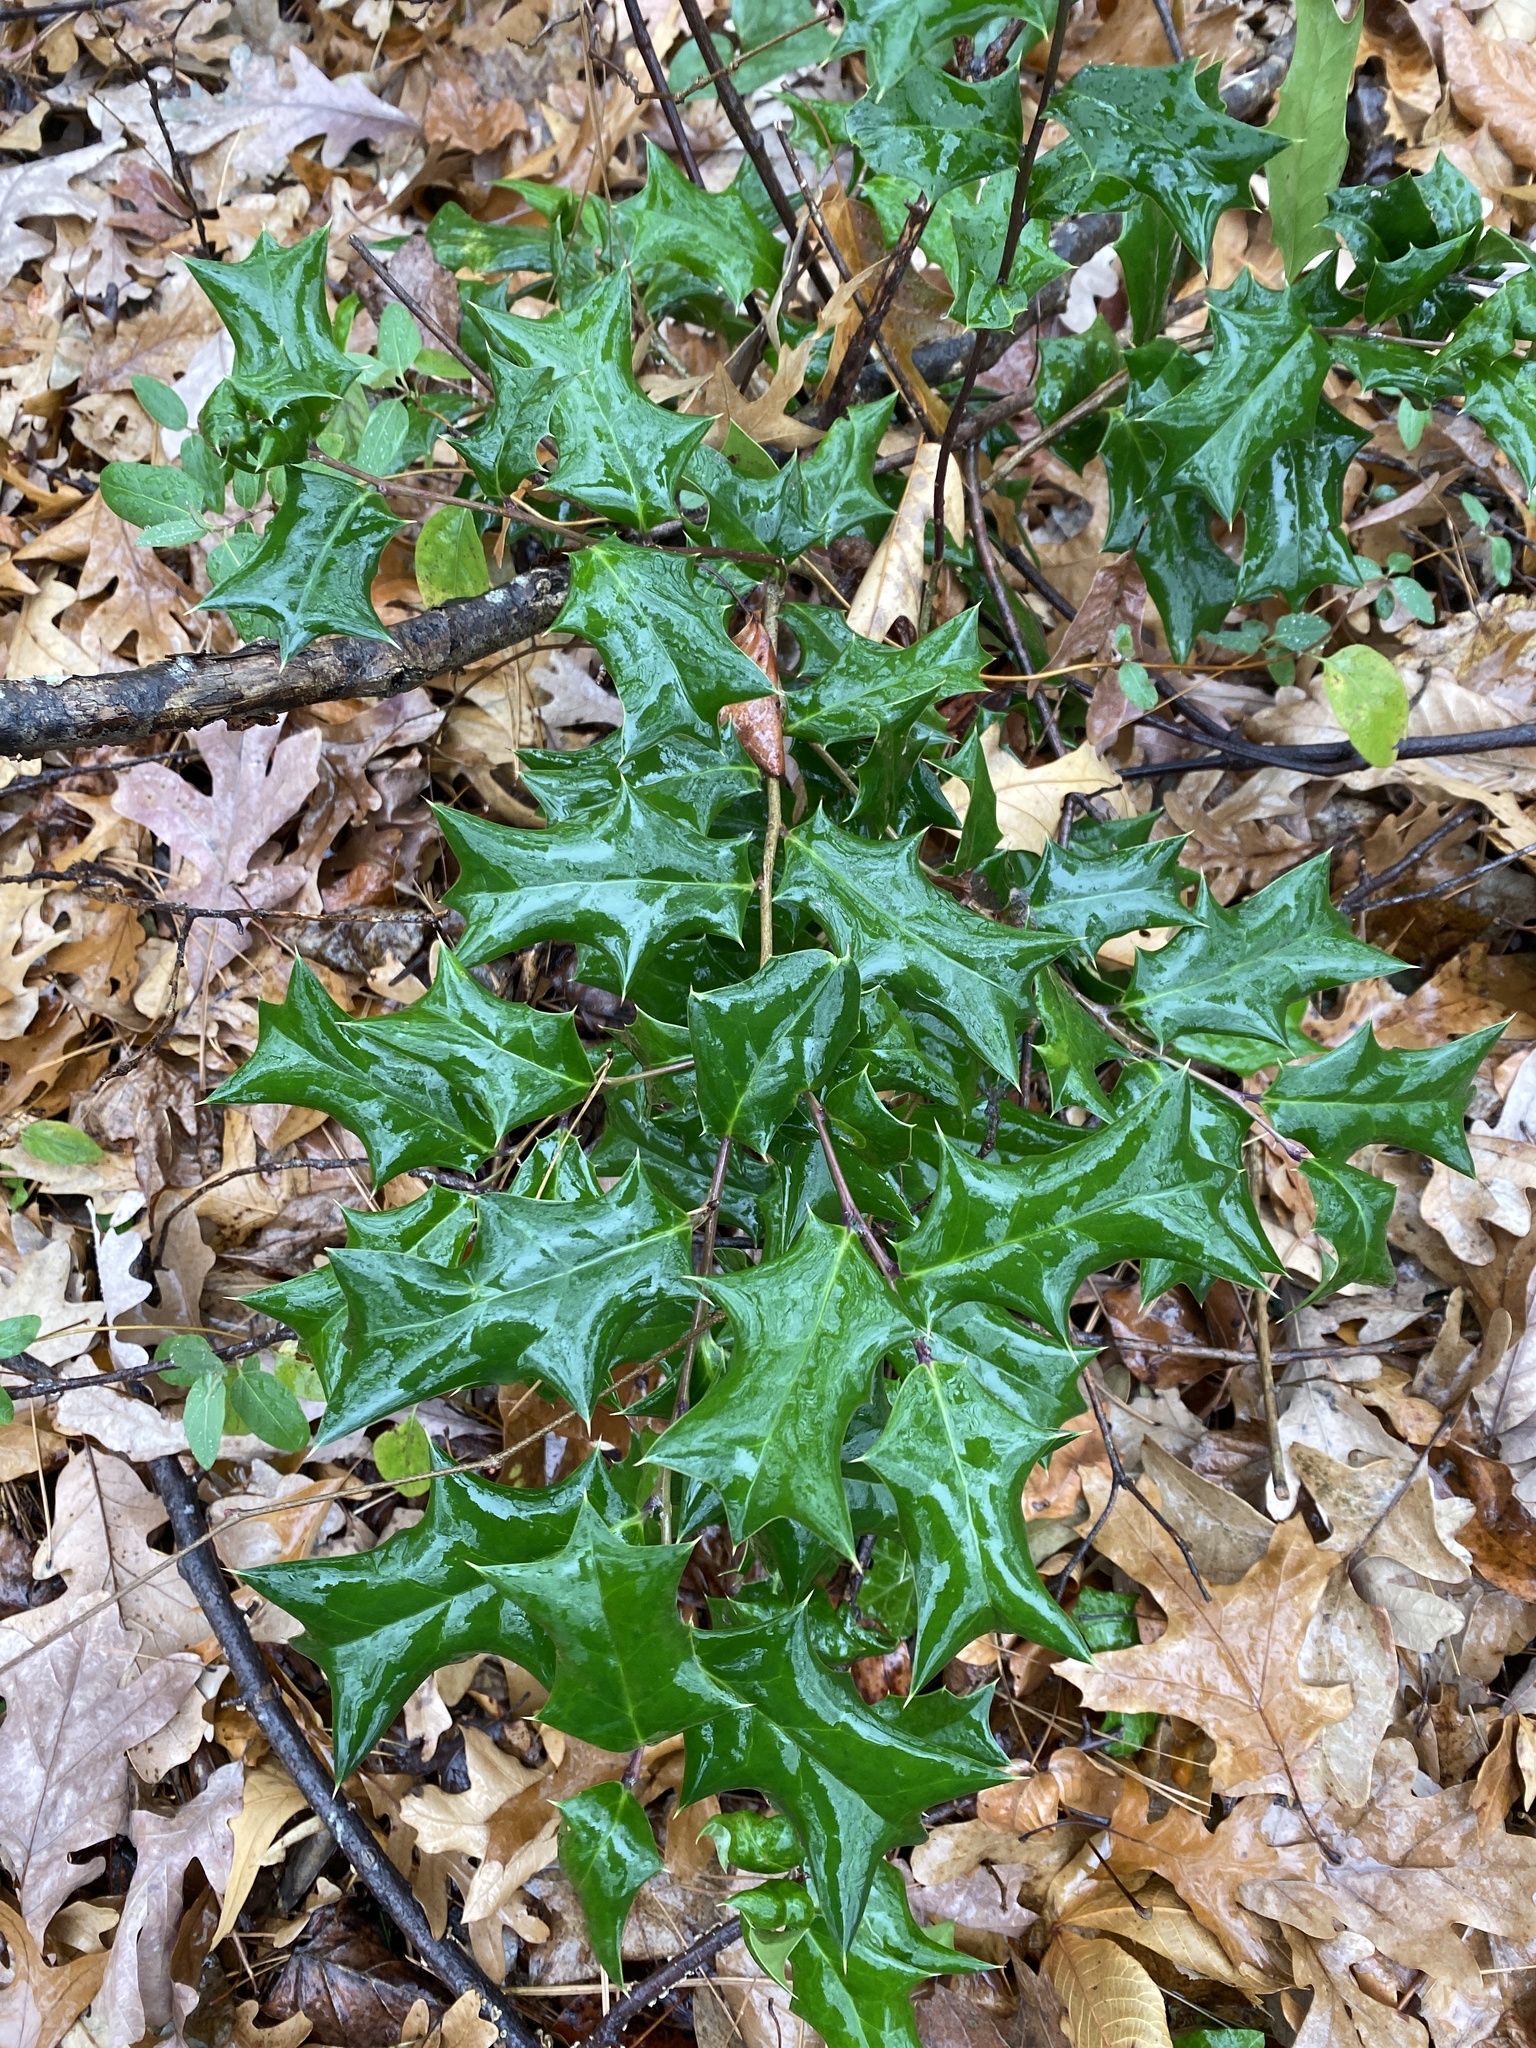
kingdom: Plantae
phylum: Tracheophyta
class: Magnoliopsida
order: Aquifoliales
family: Aquifoliaceae
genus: Ilex
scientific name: Ilex cornuta
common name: Chinese holly
